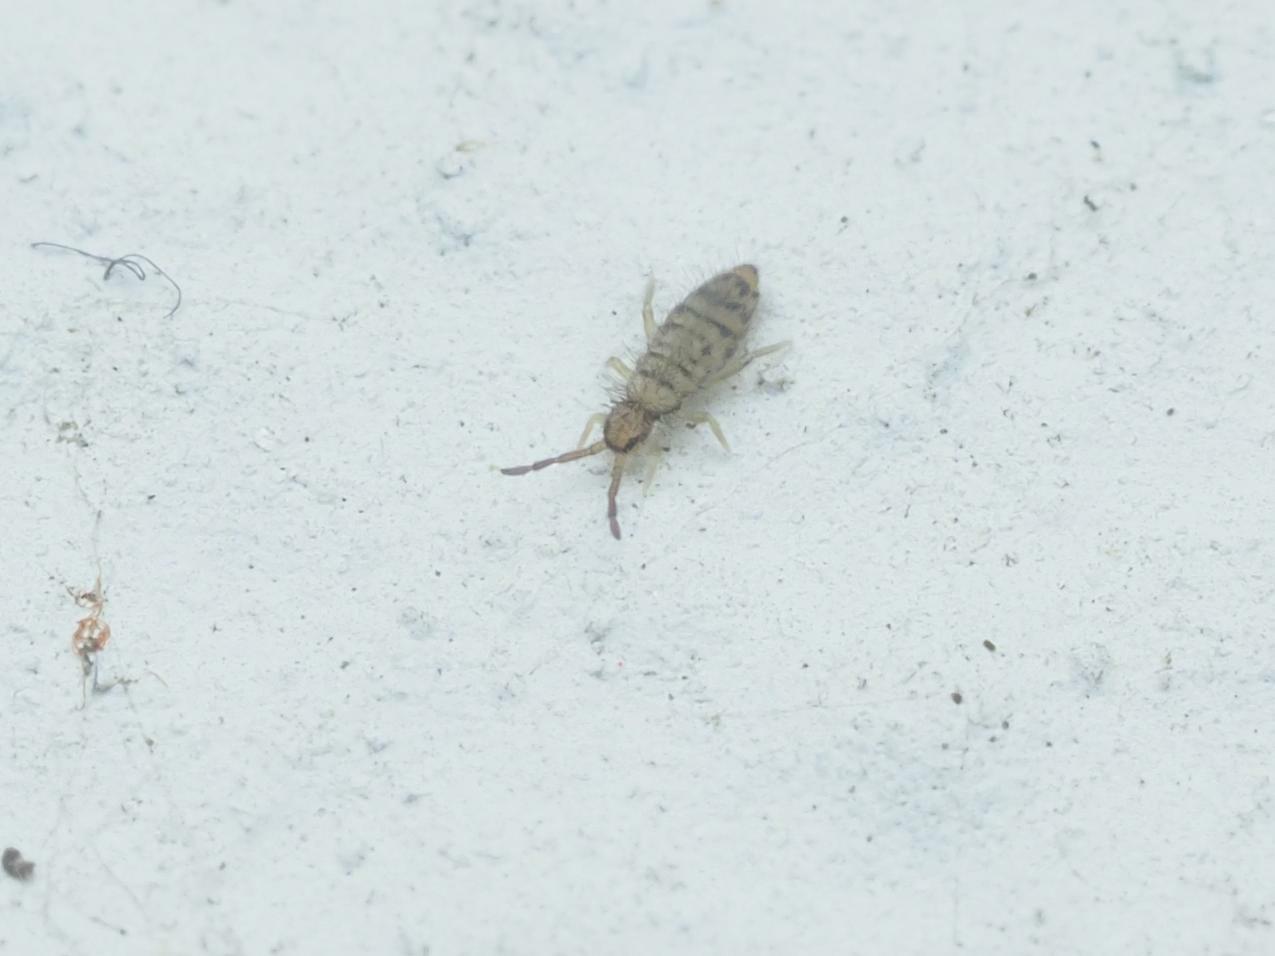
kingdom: Animalia
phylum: Arthropoda
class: Collembola
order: Entomobryomorpha
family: Entomobryidae
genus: Entomobrya
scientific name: Entomobrya multifasciata
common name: Springtail
